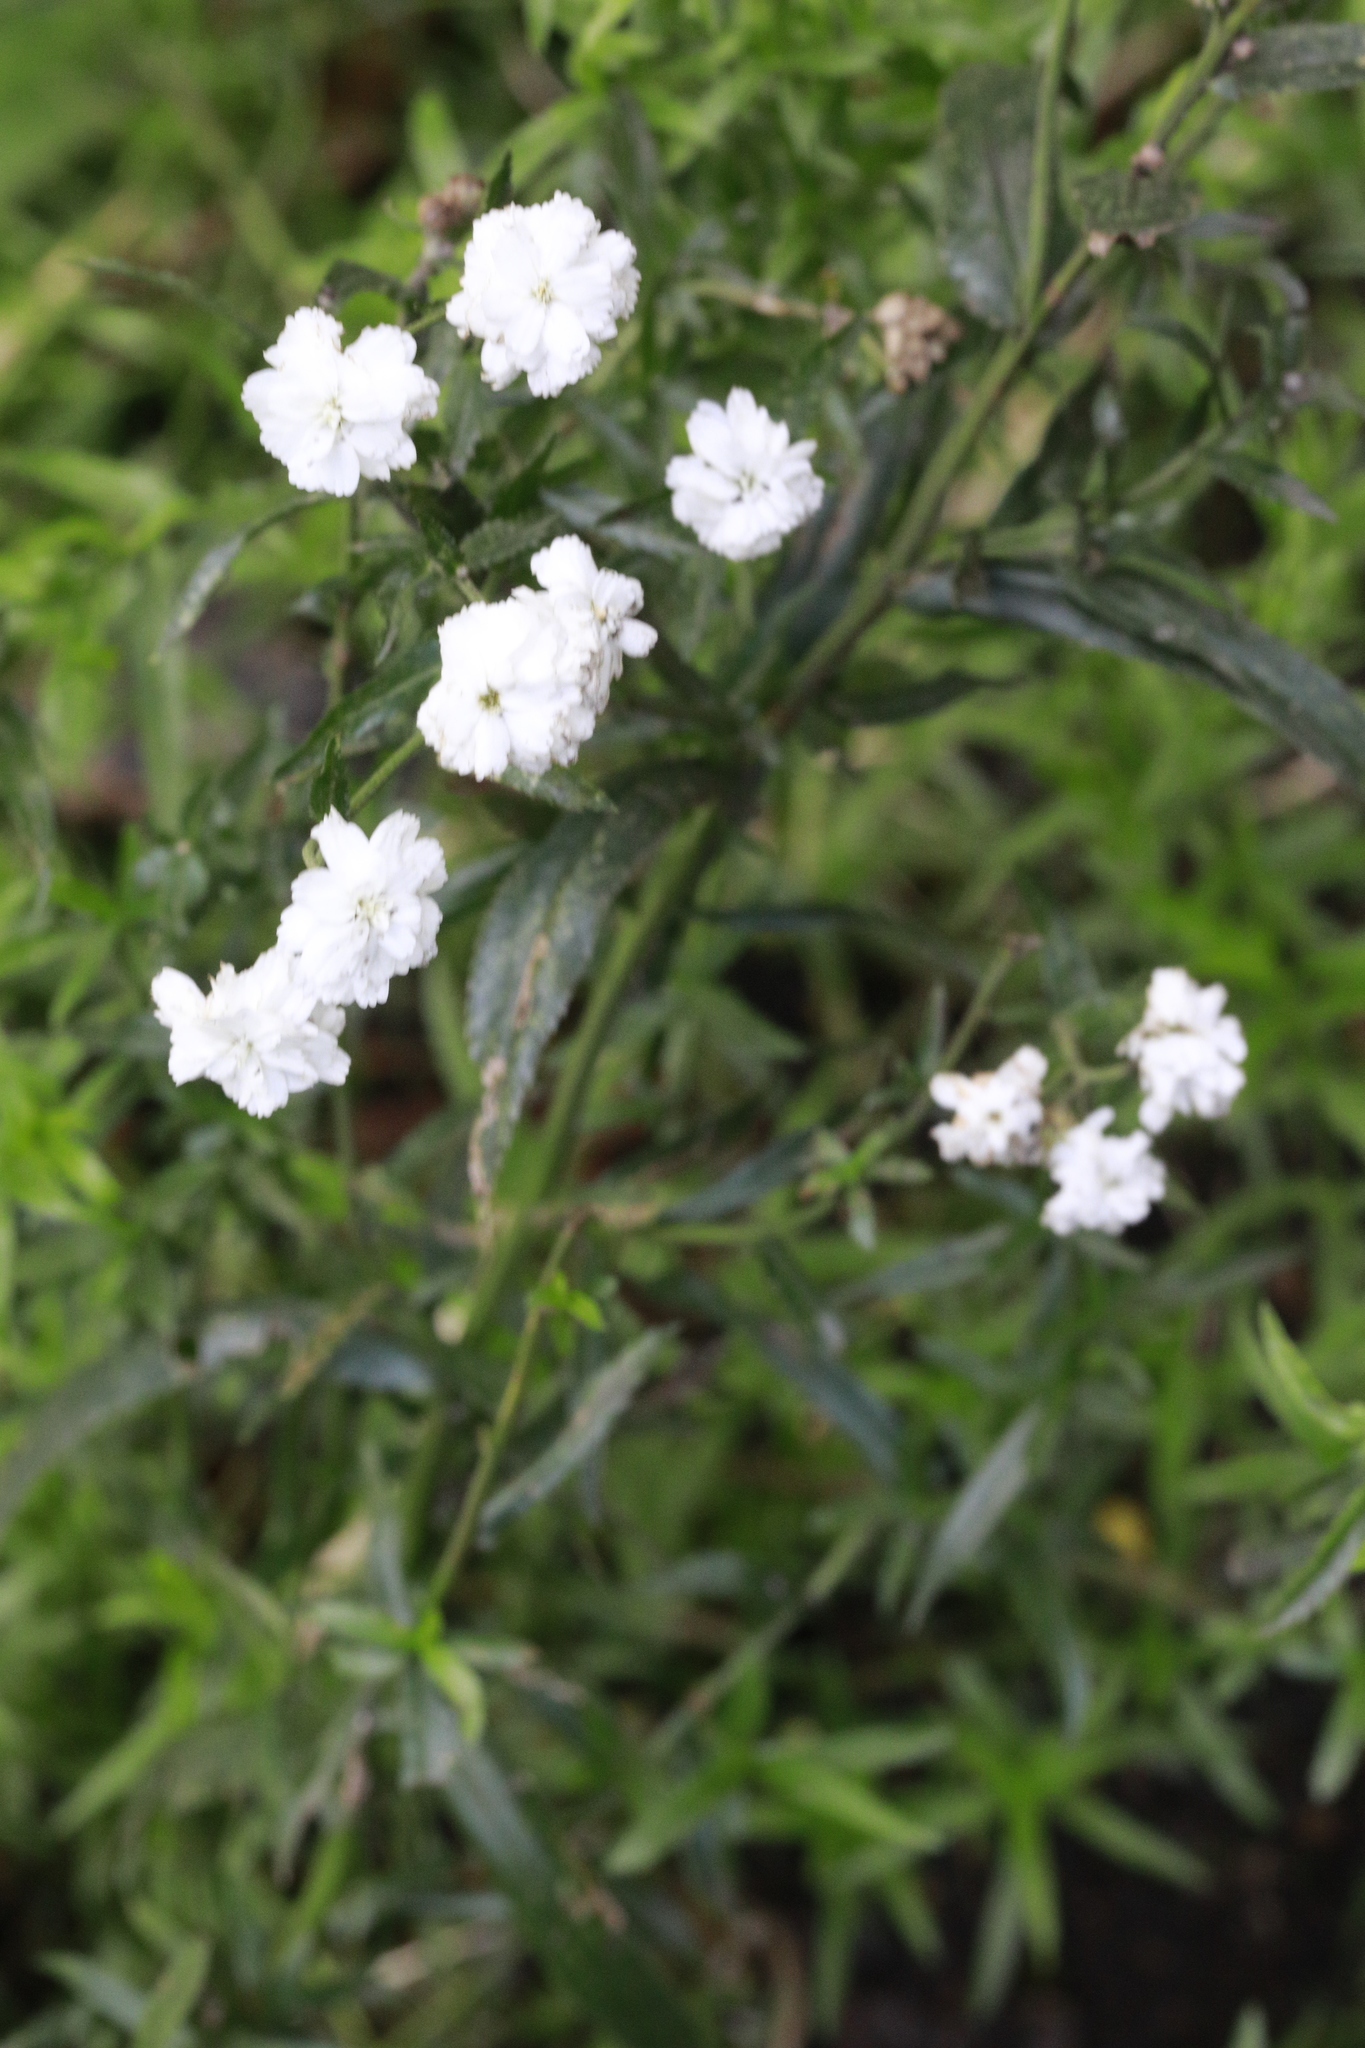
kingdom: Plantae
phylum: Tracheophyta
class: Magnoliopsida
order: Asterales
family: Asteraceae
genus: Achillea
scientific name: Achillea ptarmica
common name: Sneezeweed
